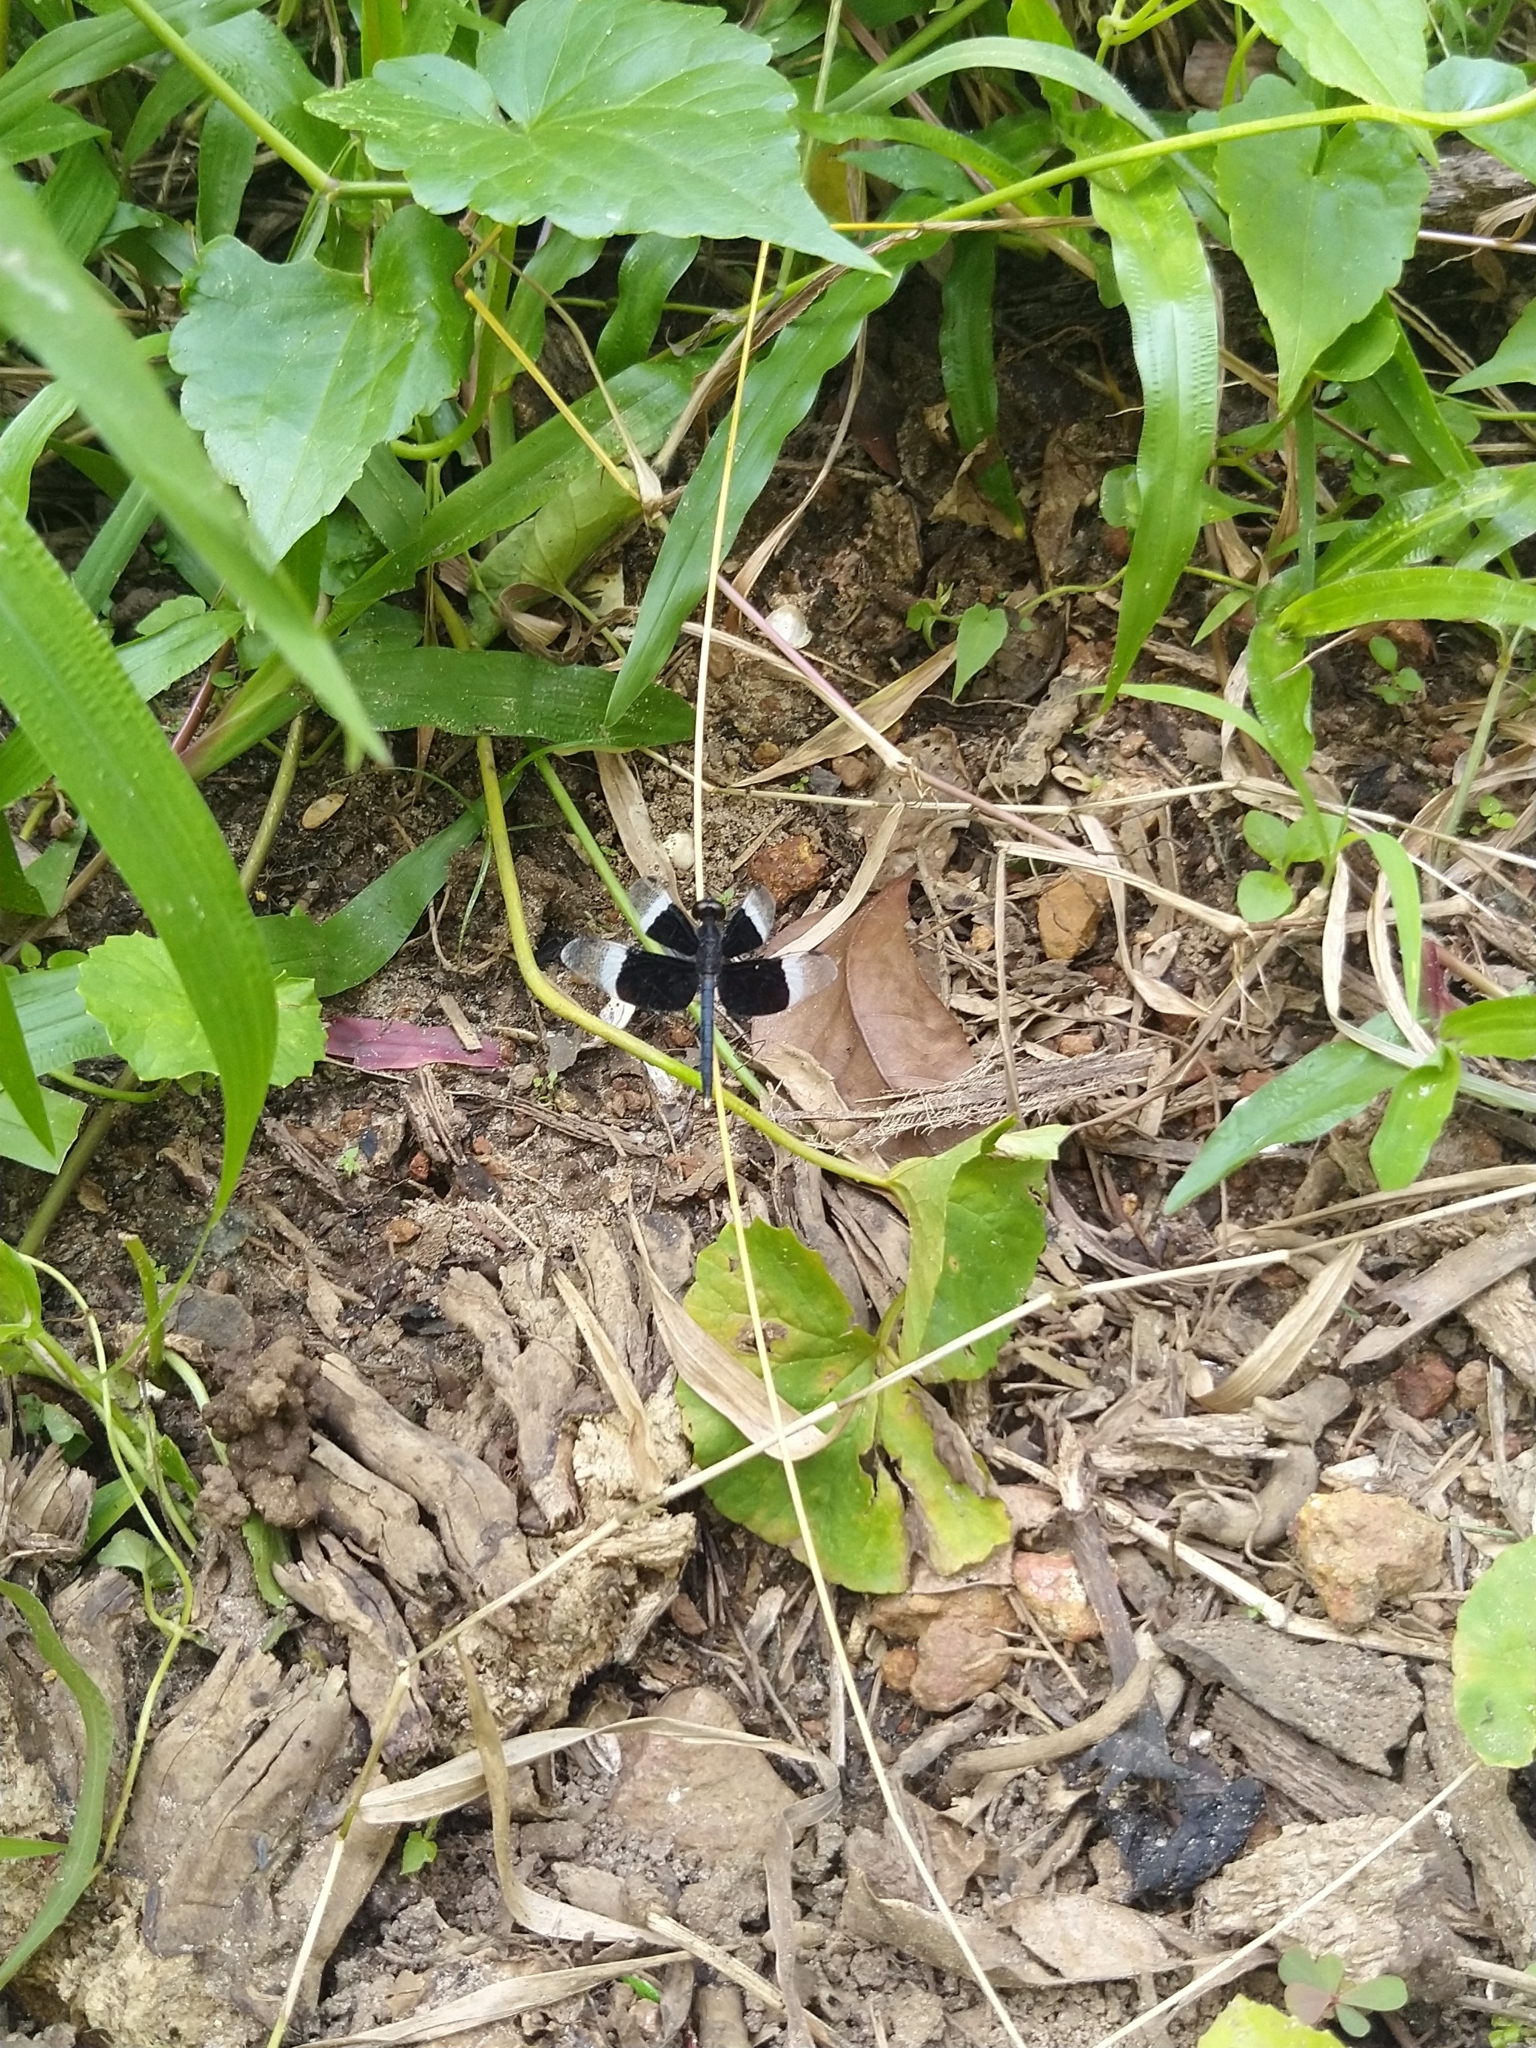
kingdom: Animalia
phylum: Arthropoda
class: Insecta
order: Odonata
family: Libellulidae
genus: Neurothemis
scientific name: Neurothemis tullia
